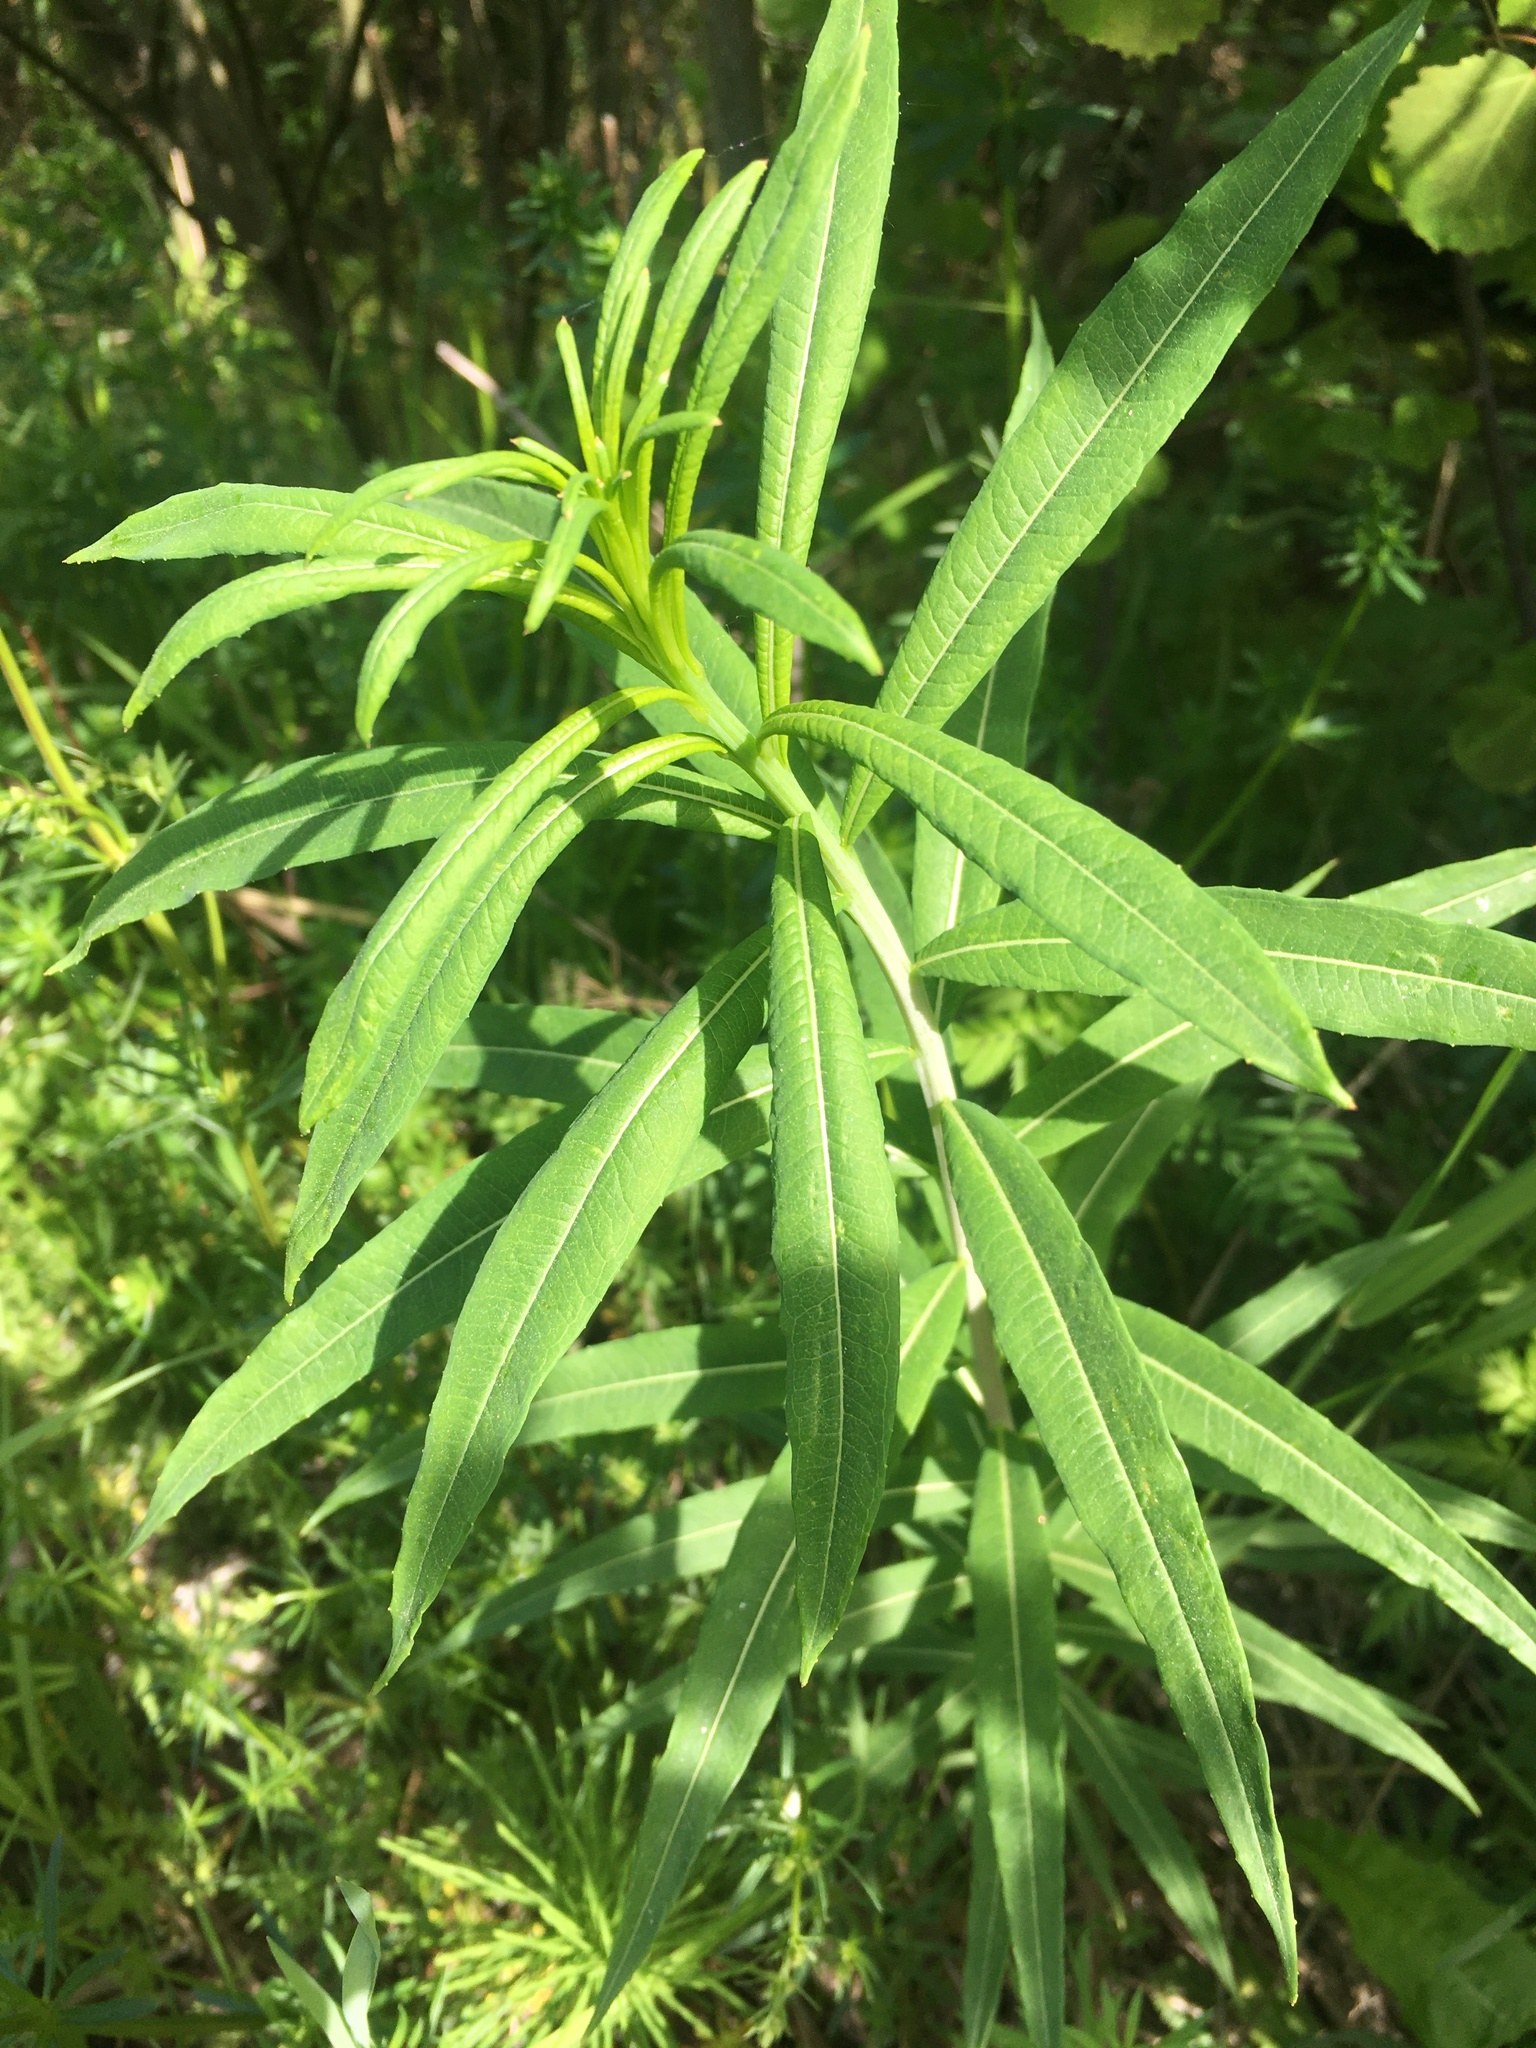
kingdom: Plantae
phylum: Tracheophyta
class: Magnoliopsida
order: Myrtales
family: Onagraceae
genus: Chamaenerion
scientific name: Chamaenerion angustifolium
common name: Fireweed
